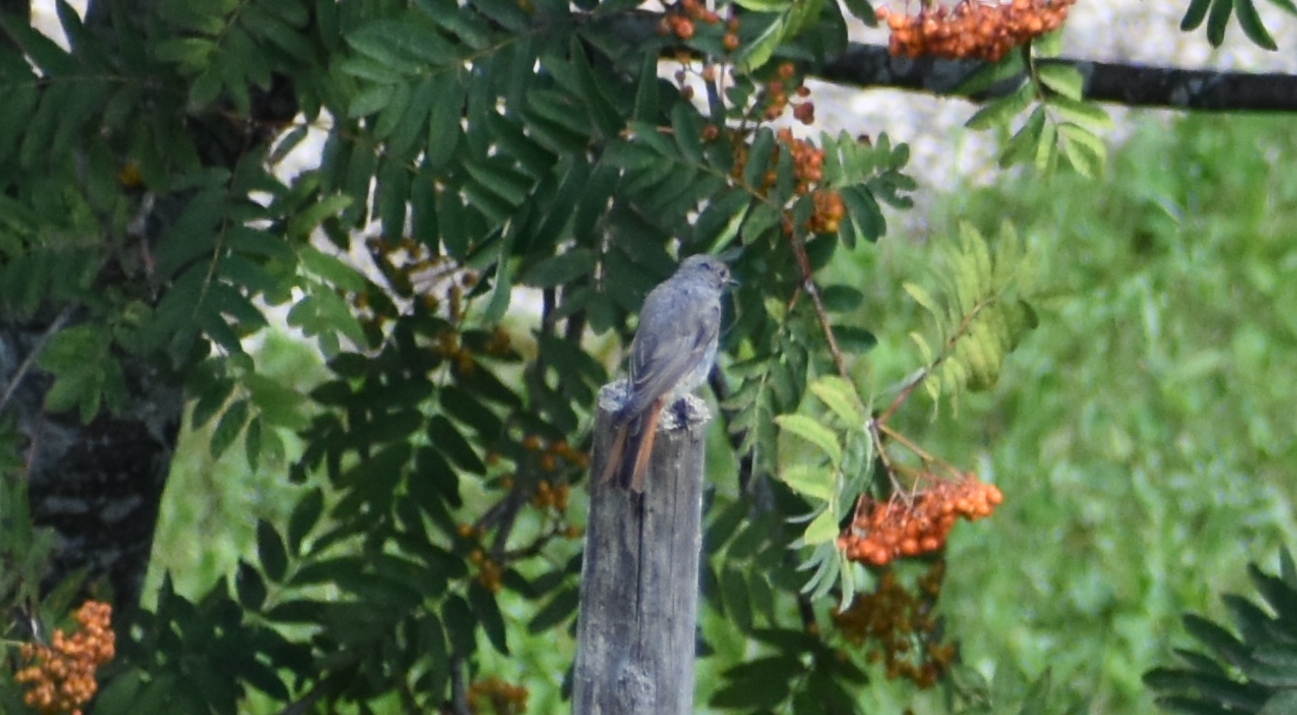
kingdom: Animalia
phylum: Chordata
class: Aves
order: Passeriformes
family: Muscicapidae
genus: Phoenicurus
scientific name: Phoenicurus ochruros
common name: Black redstart
